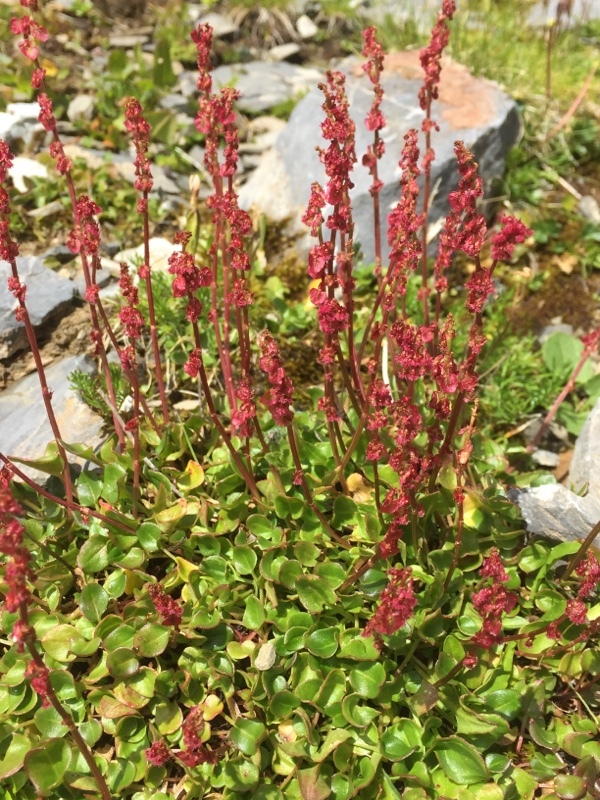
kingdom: Plantae
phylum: Tracheophyta
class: Magnoliopsida
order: Caryophyllales
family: Polygonaceae
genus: Rumex
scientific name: Rumex nivalis
